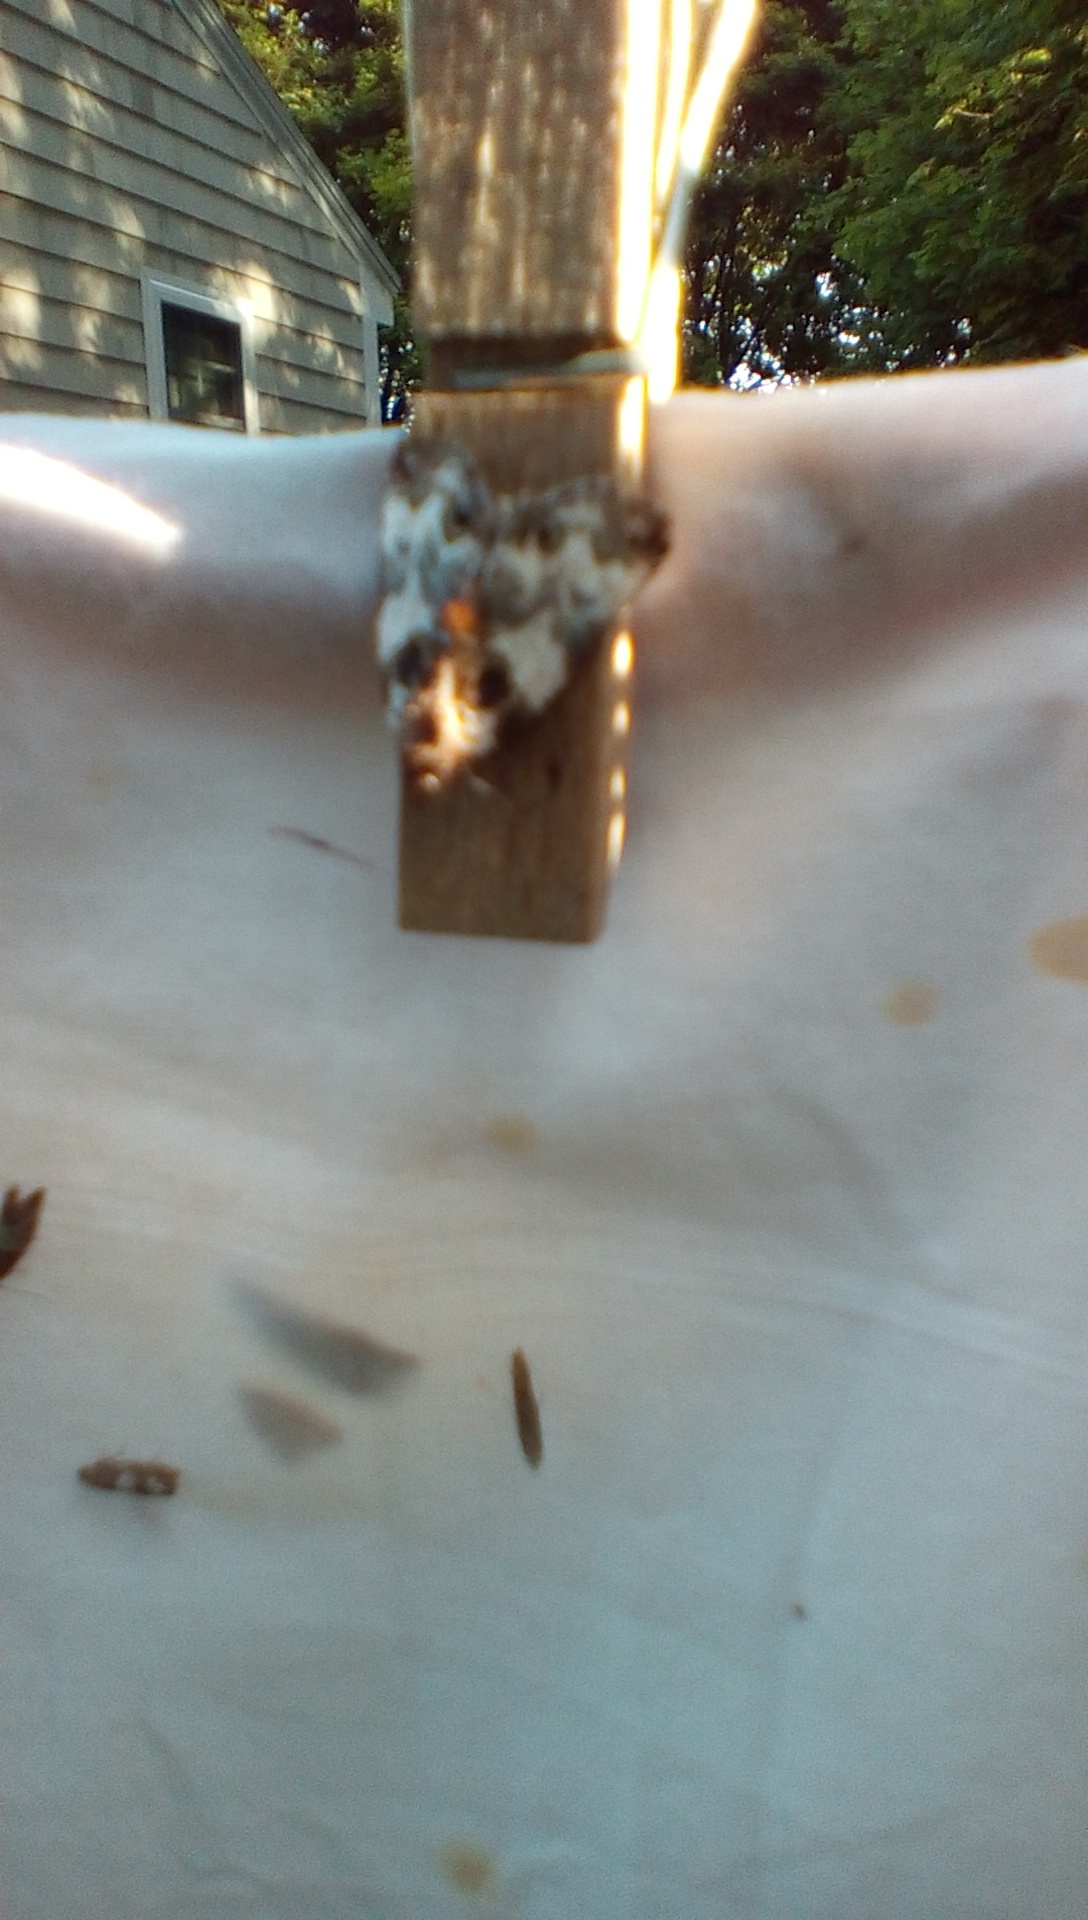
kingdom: Animalia
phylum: Arthropoda
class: Insecta
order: Lepidoptera
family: Noctuidae
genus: Cerma
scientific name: Cerma cerintha
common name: Tufted bird-dropping moth
